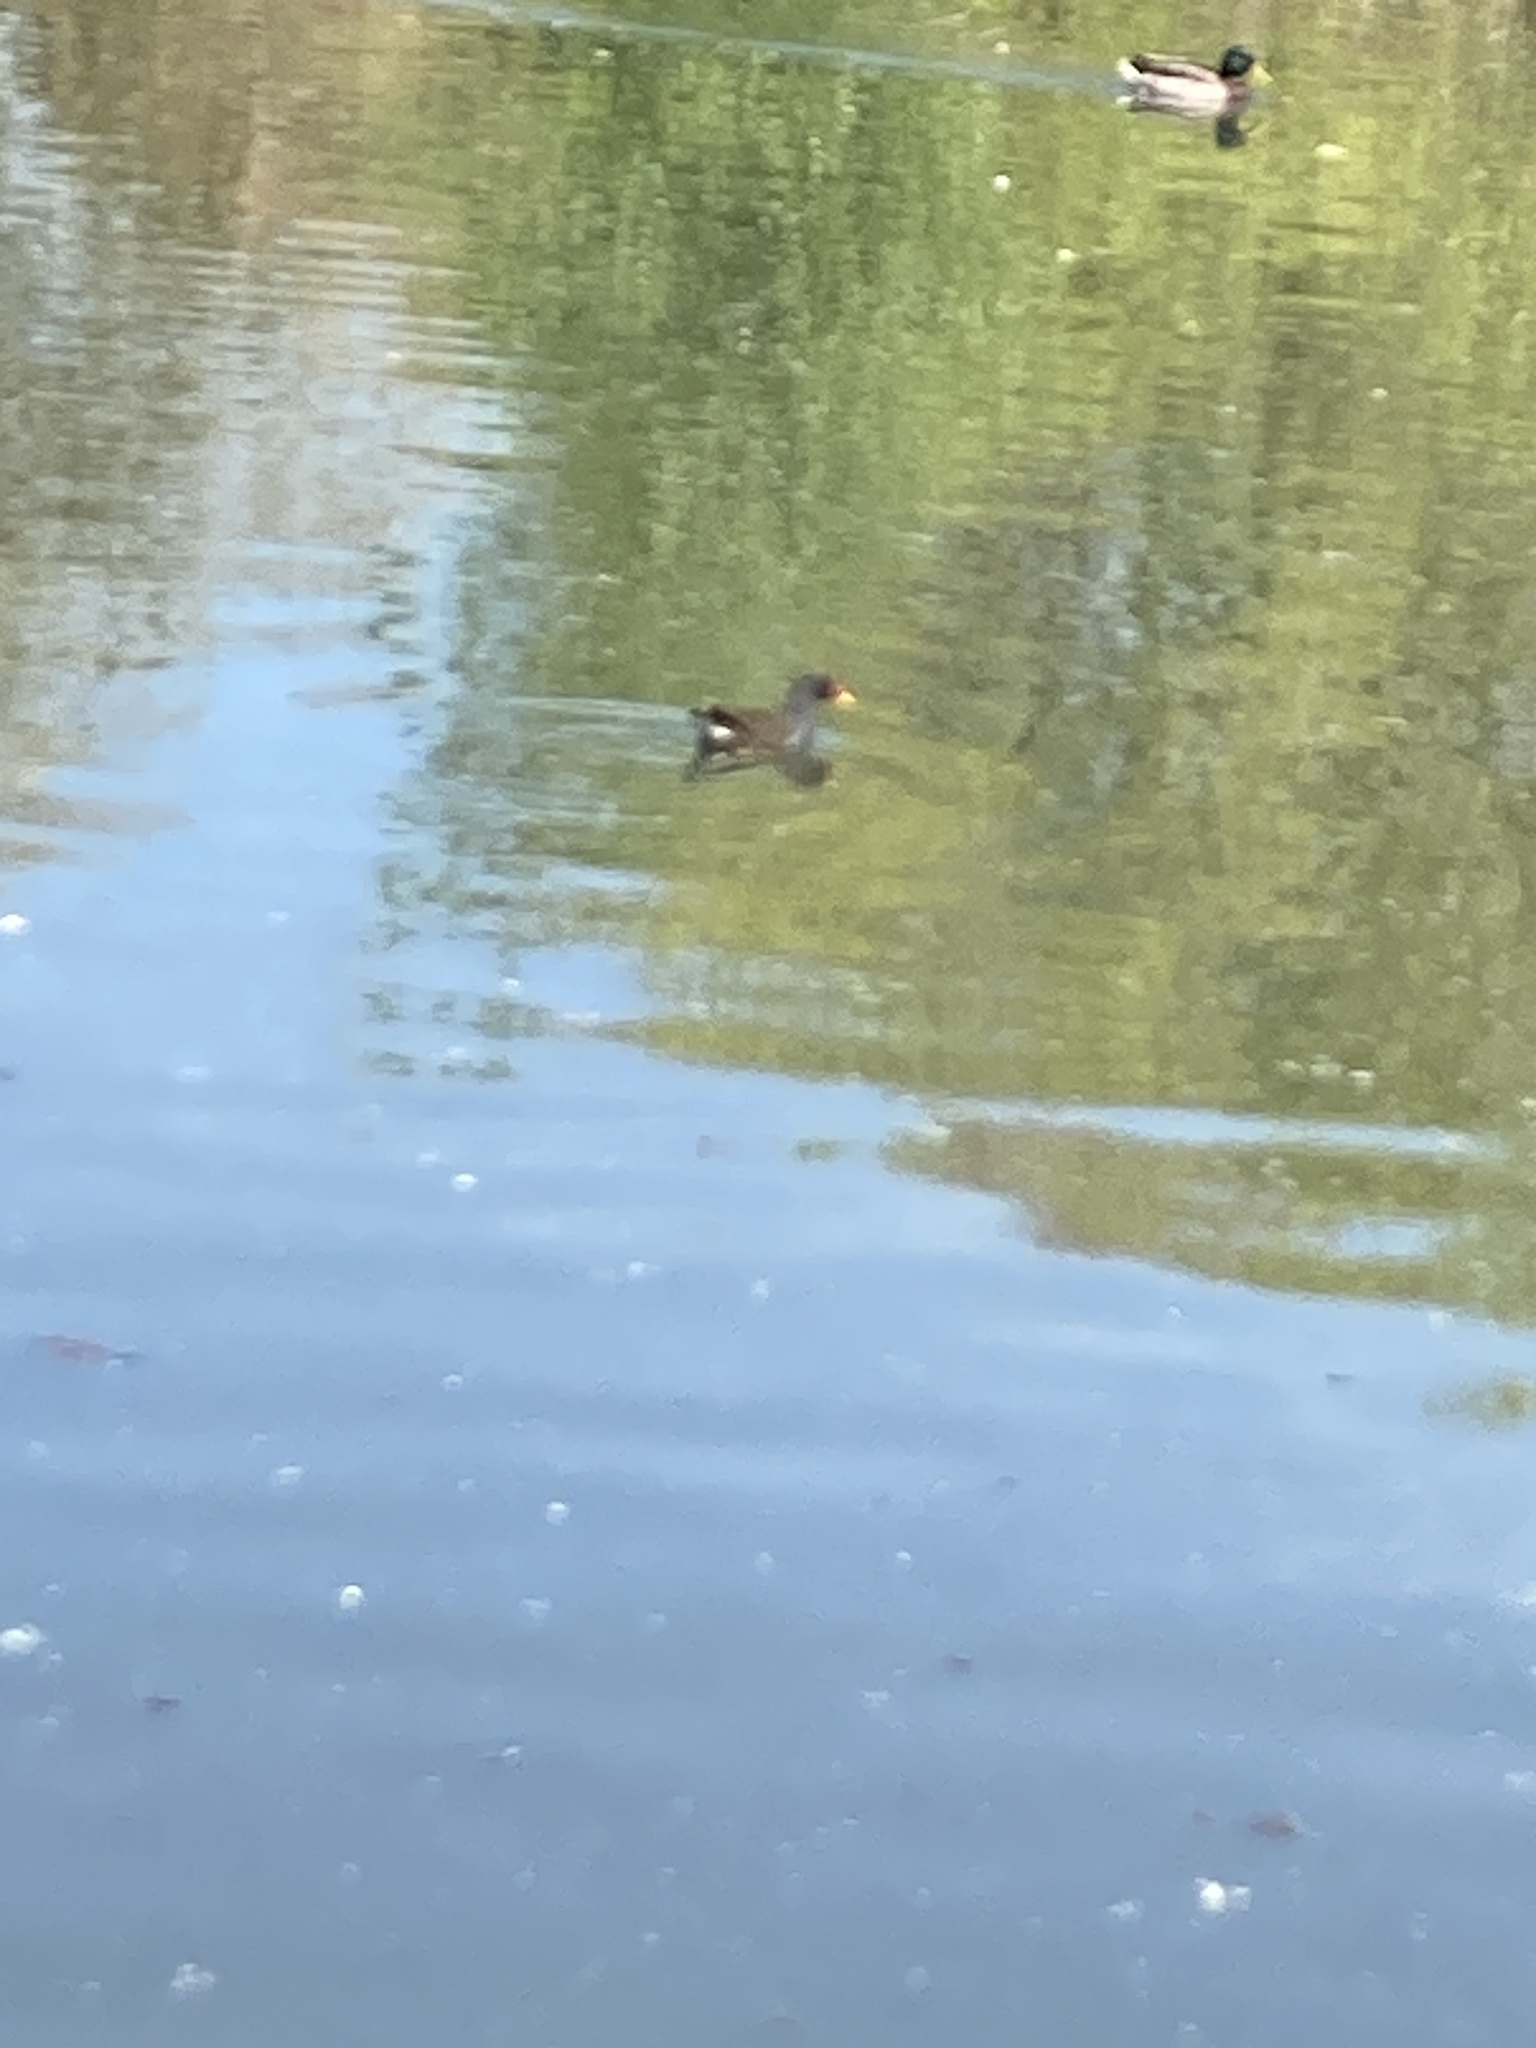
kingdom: Animalia
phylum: Chordata
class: Aves
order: Gruiformes
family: Rallidae
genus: Gallinula
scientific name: Gallinula chloropus
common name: Common moorhen
